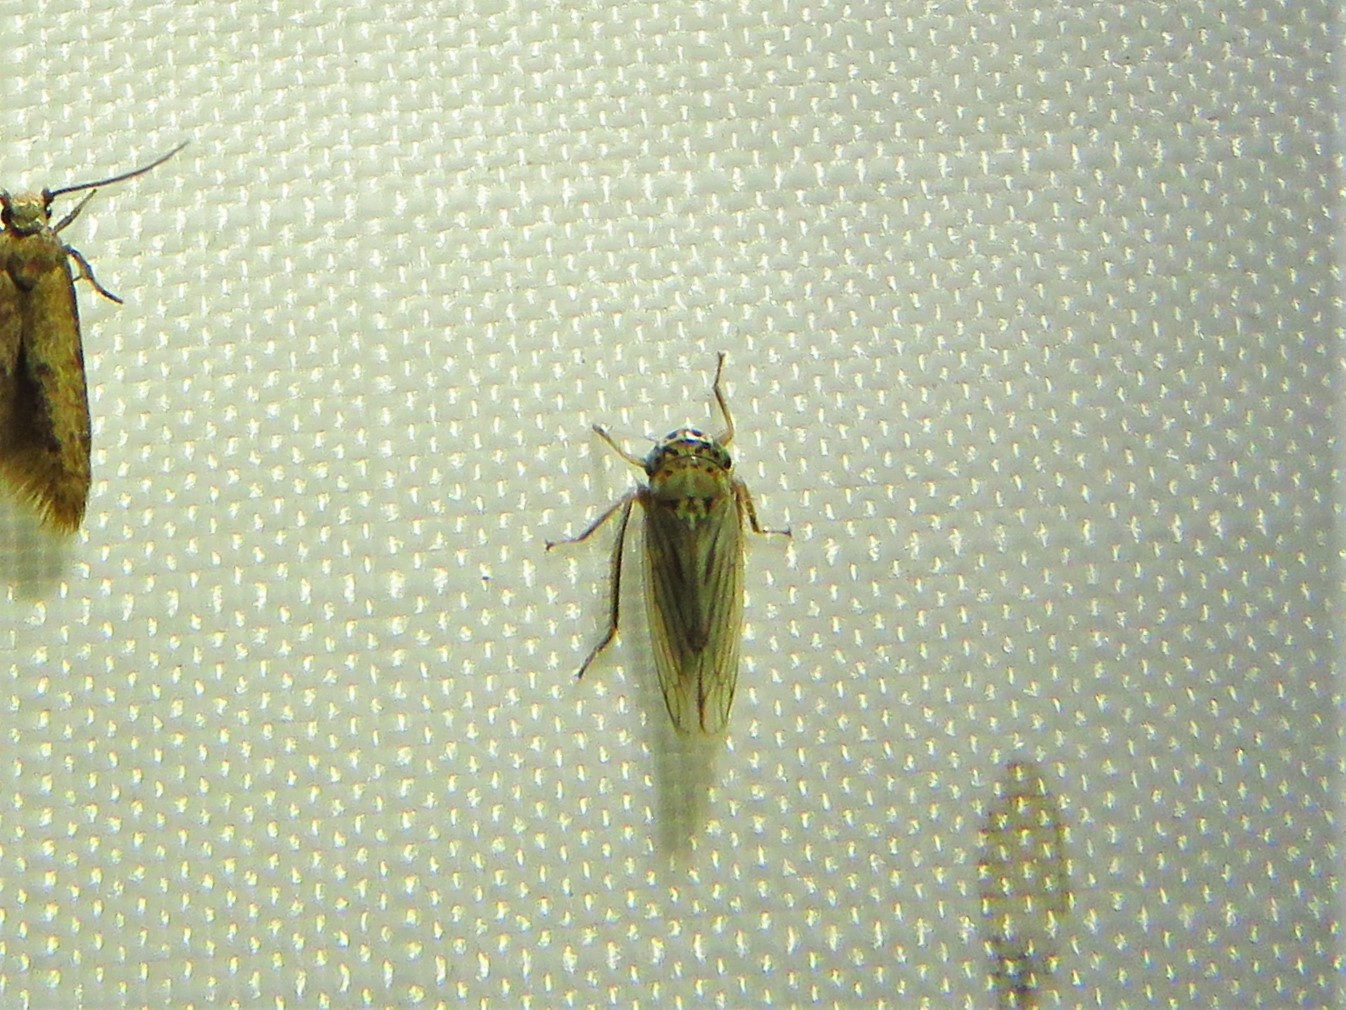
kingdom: Animalia
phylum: Arthropoda
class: Insecta
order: Hemiptera
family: Cicadellidae
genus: Exitianus
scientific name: Exitianus exitiosus
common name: Gray lawn leafhopper
